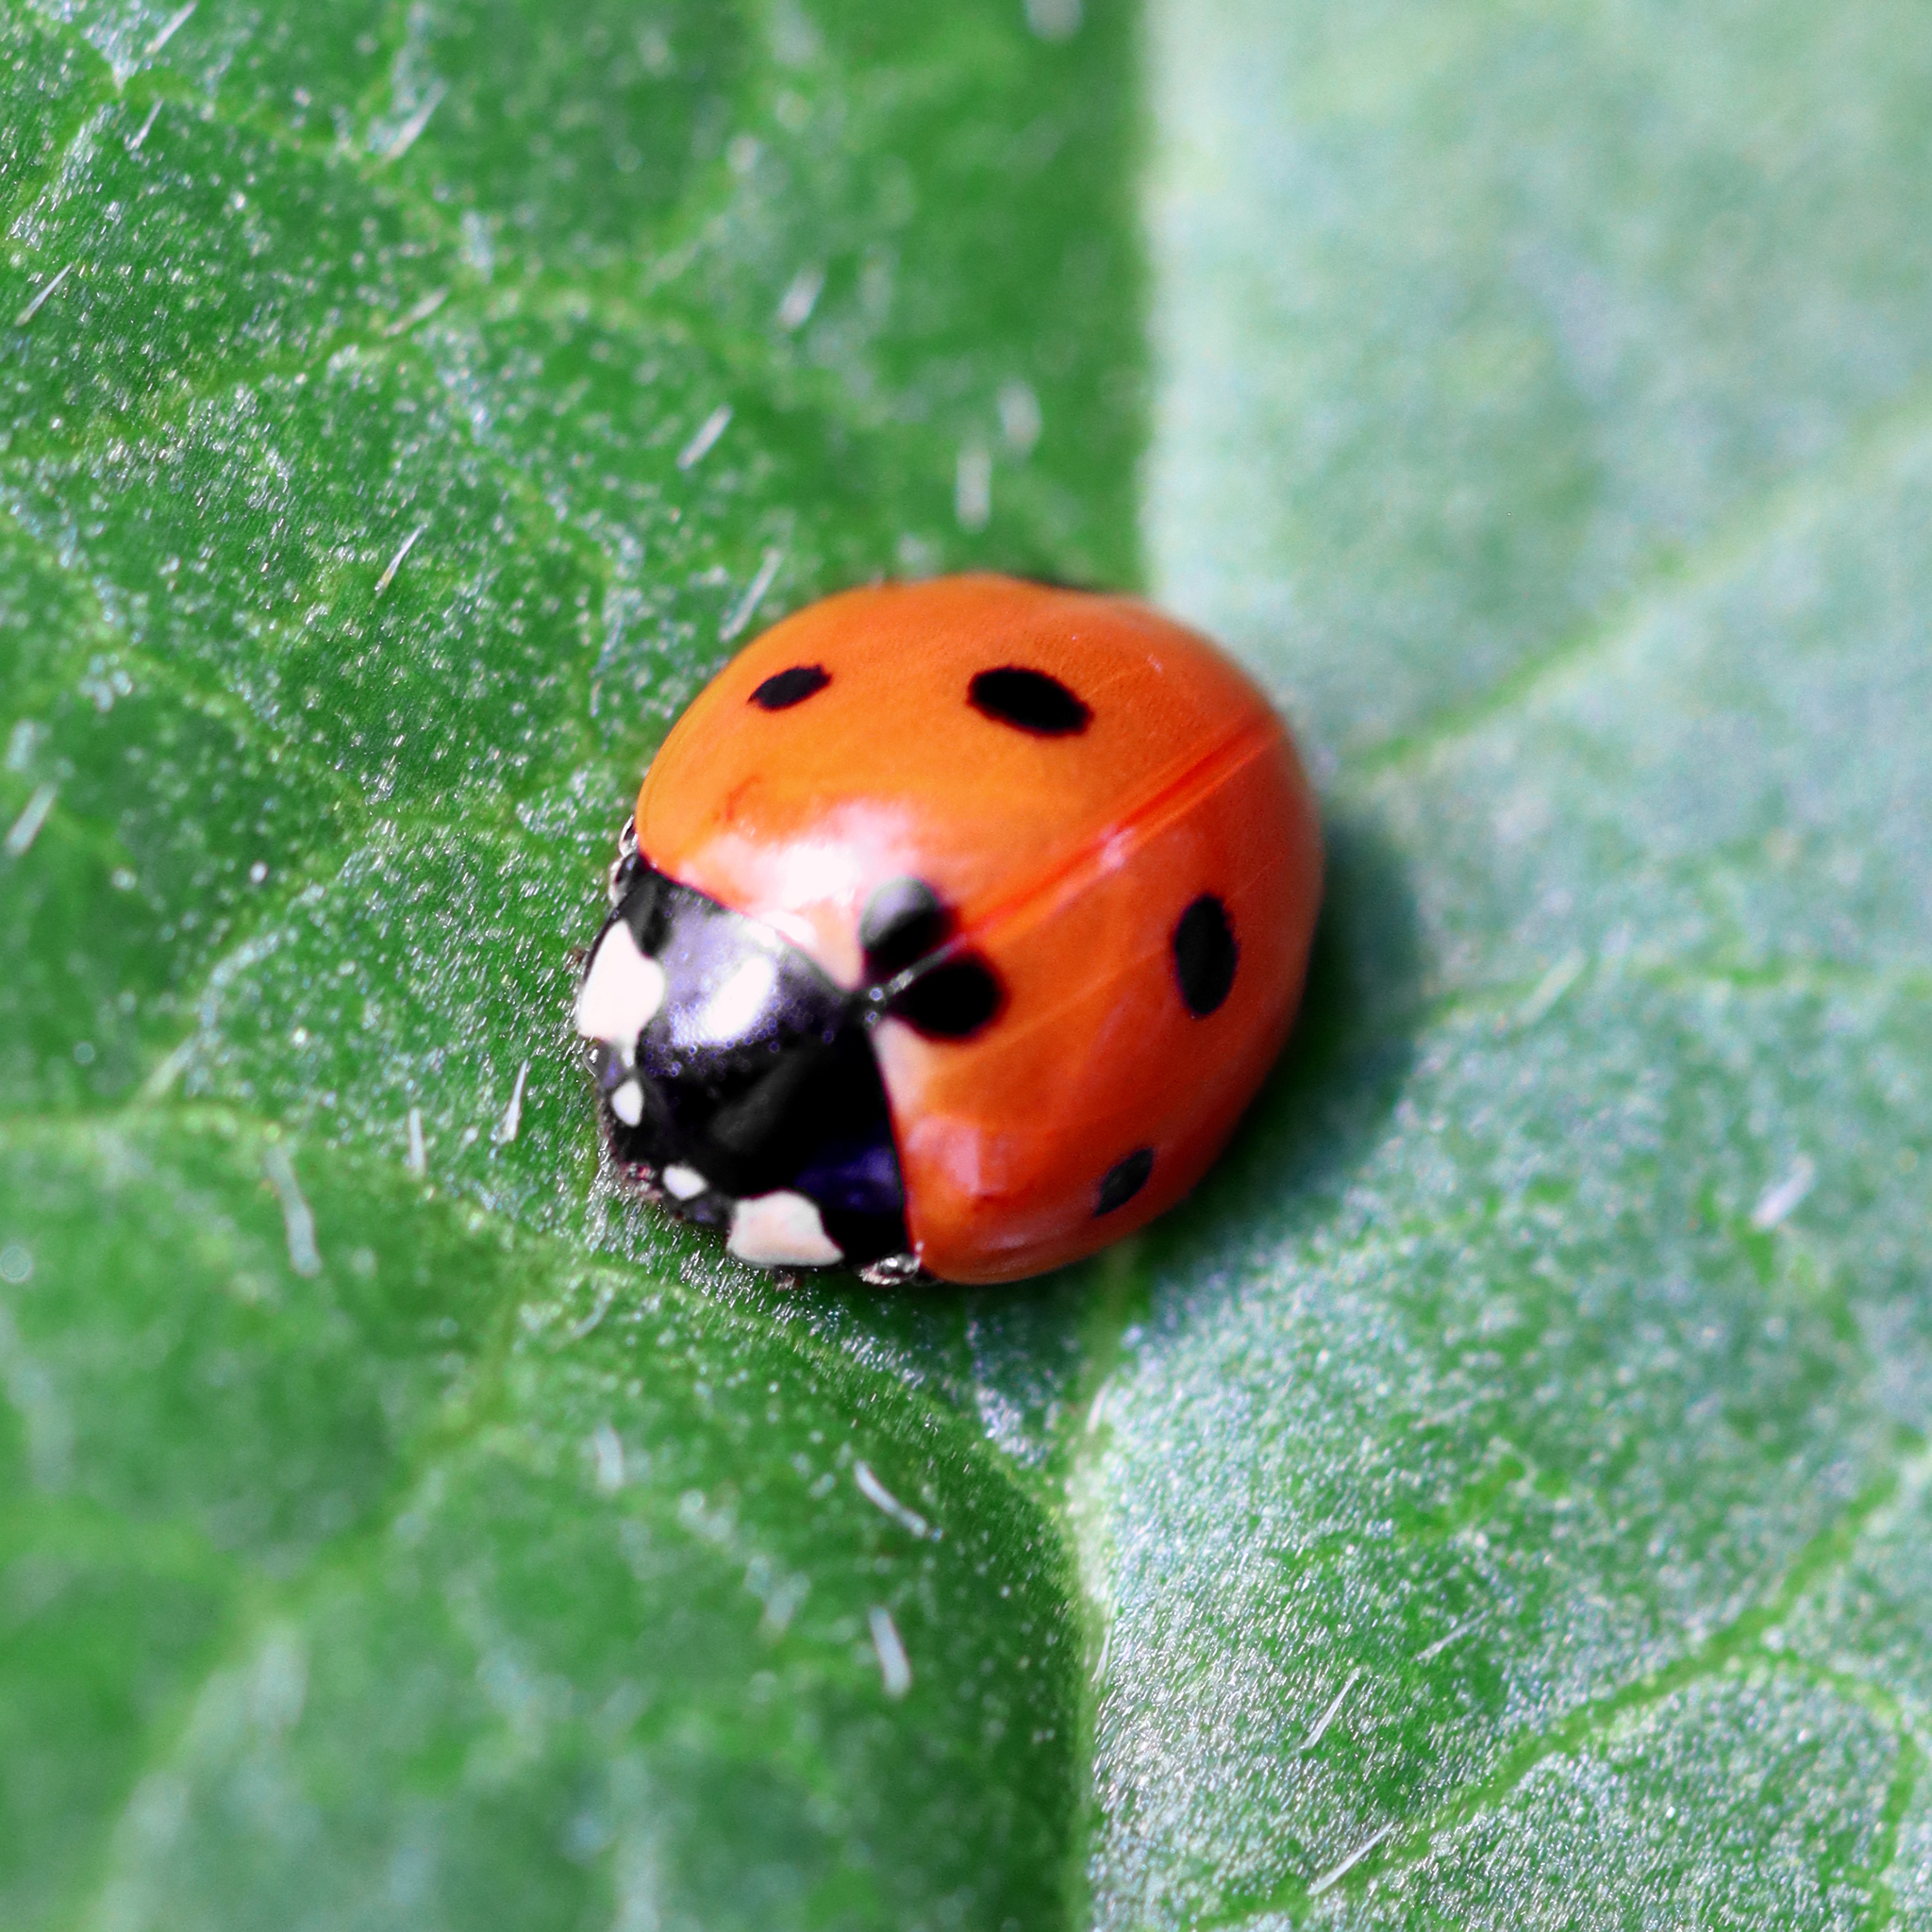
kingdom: Animalia
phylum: Arthropoda
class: Insecta
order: Coleoptera
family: Coccinellidae
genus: Coccinella
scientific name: Coccinella septempunctata
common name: Sevenspotted lady beetle
